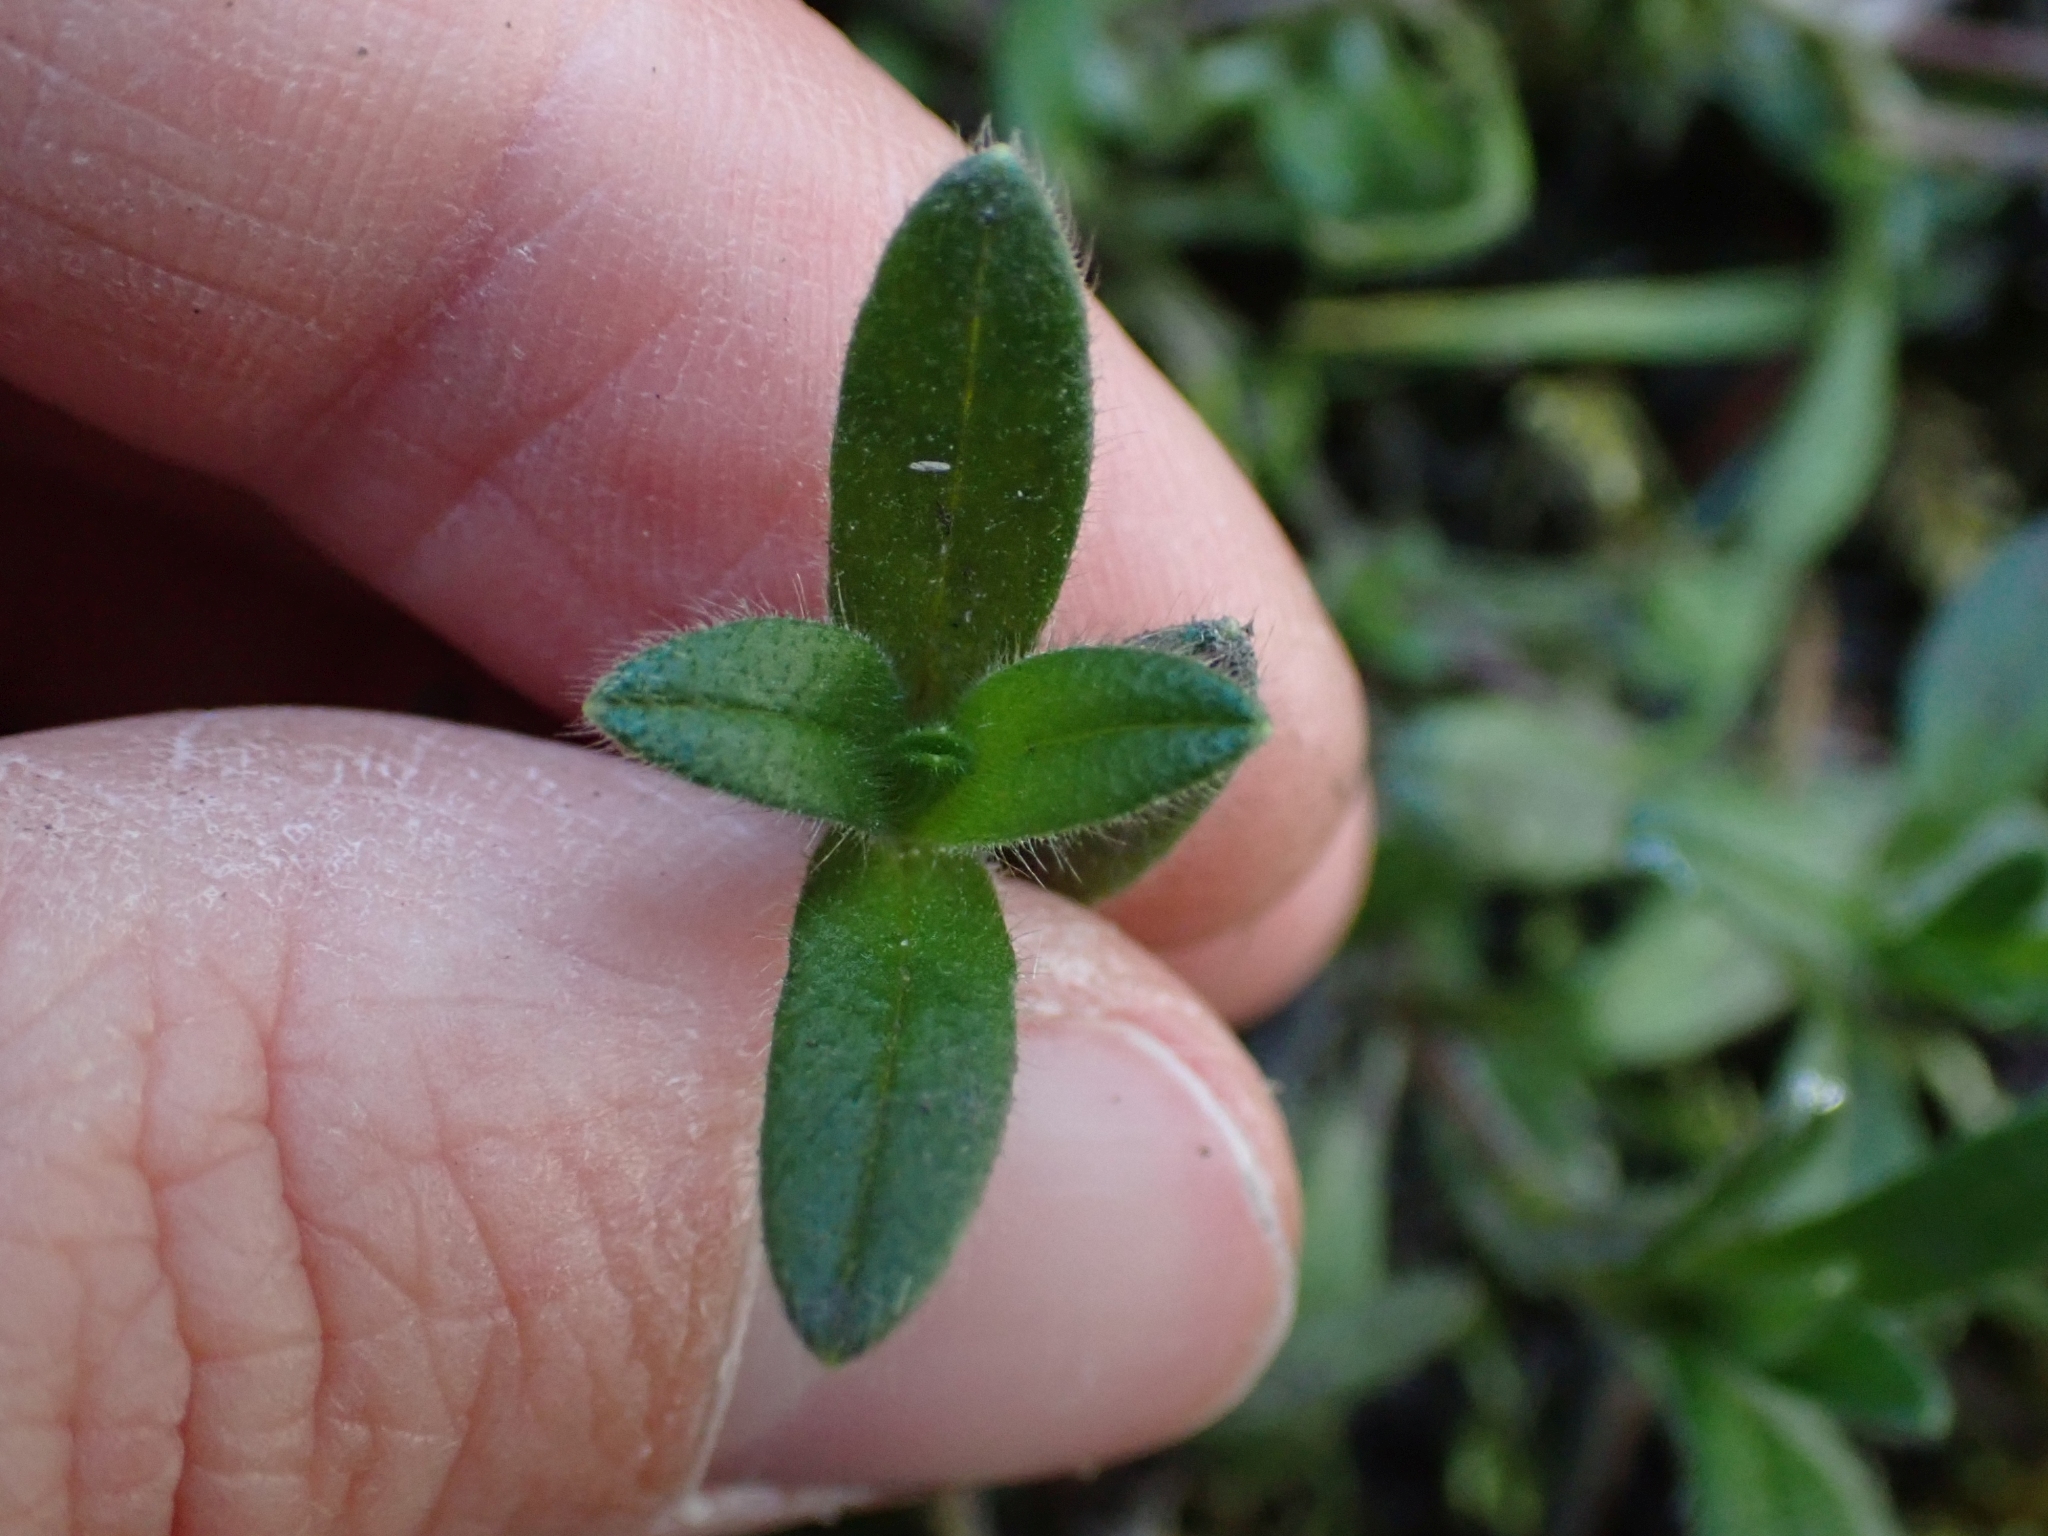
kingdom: Plantae
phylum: Tracheophyta
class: Magnoliopsida
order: Caryophyllales
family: Caryophyllaceae
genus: Cerastium
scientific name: Cerastium fontanum
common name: Common mouse-ear
